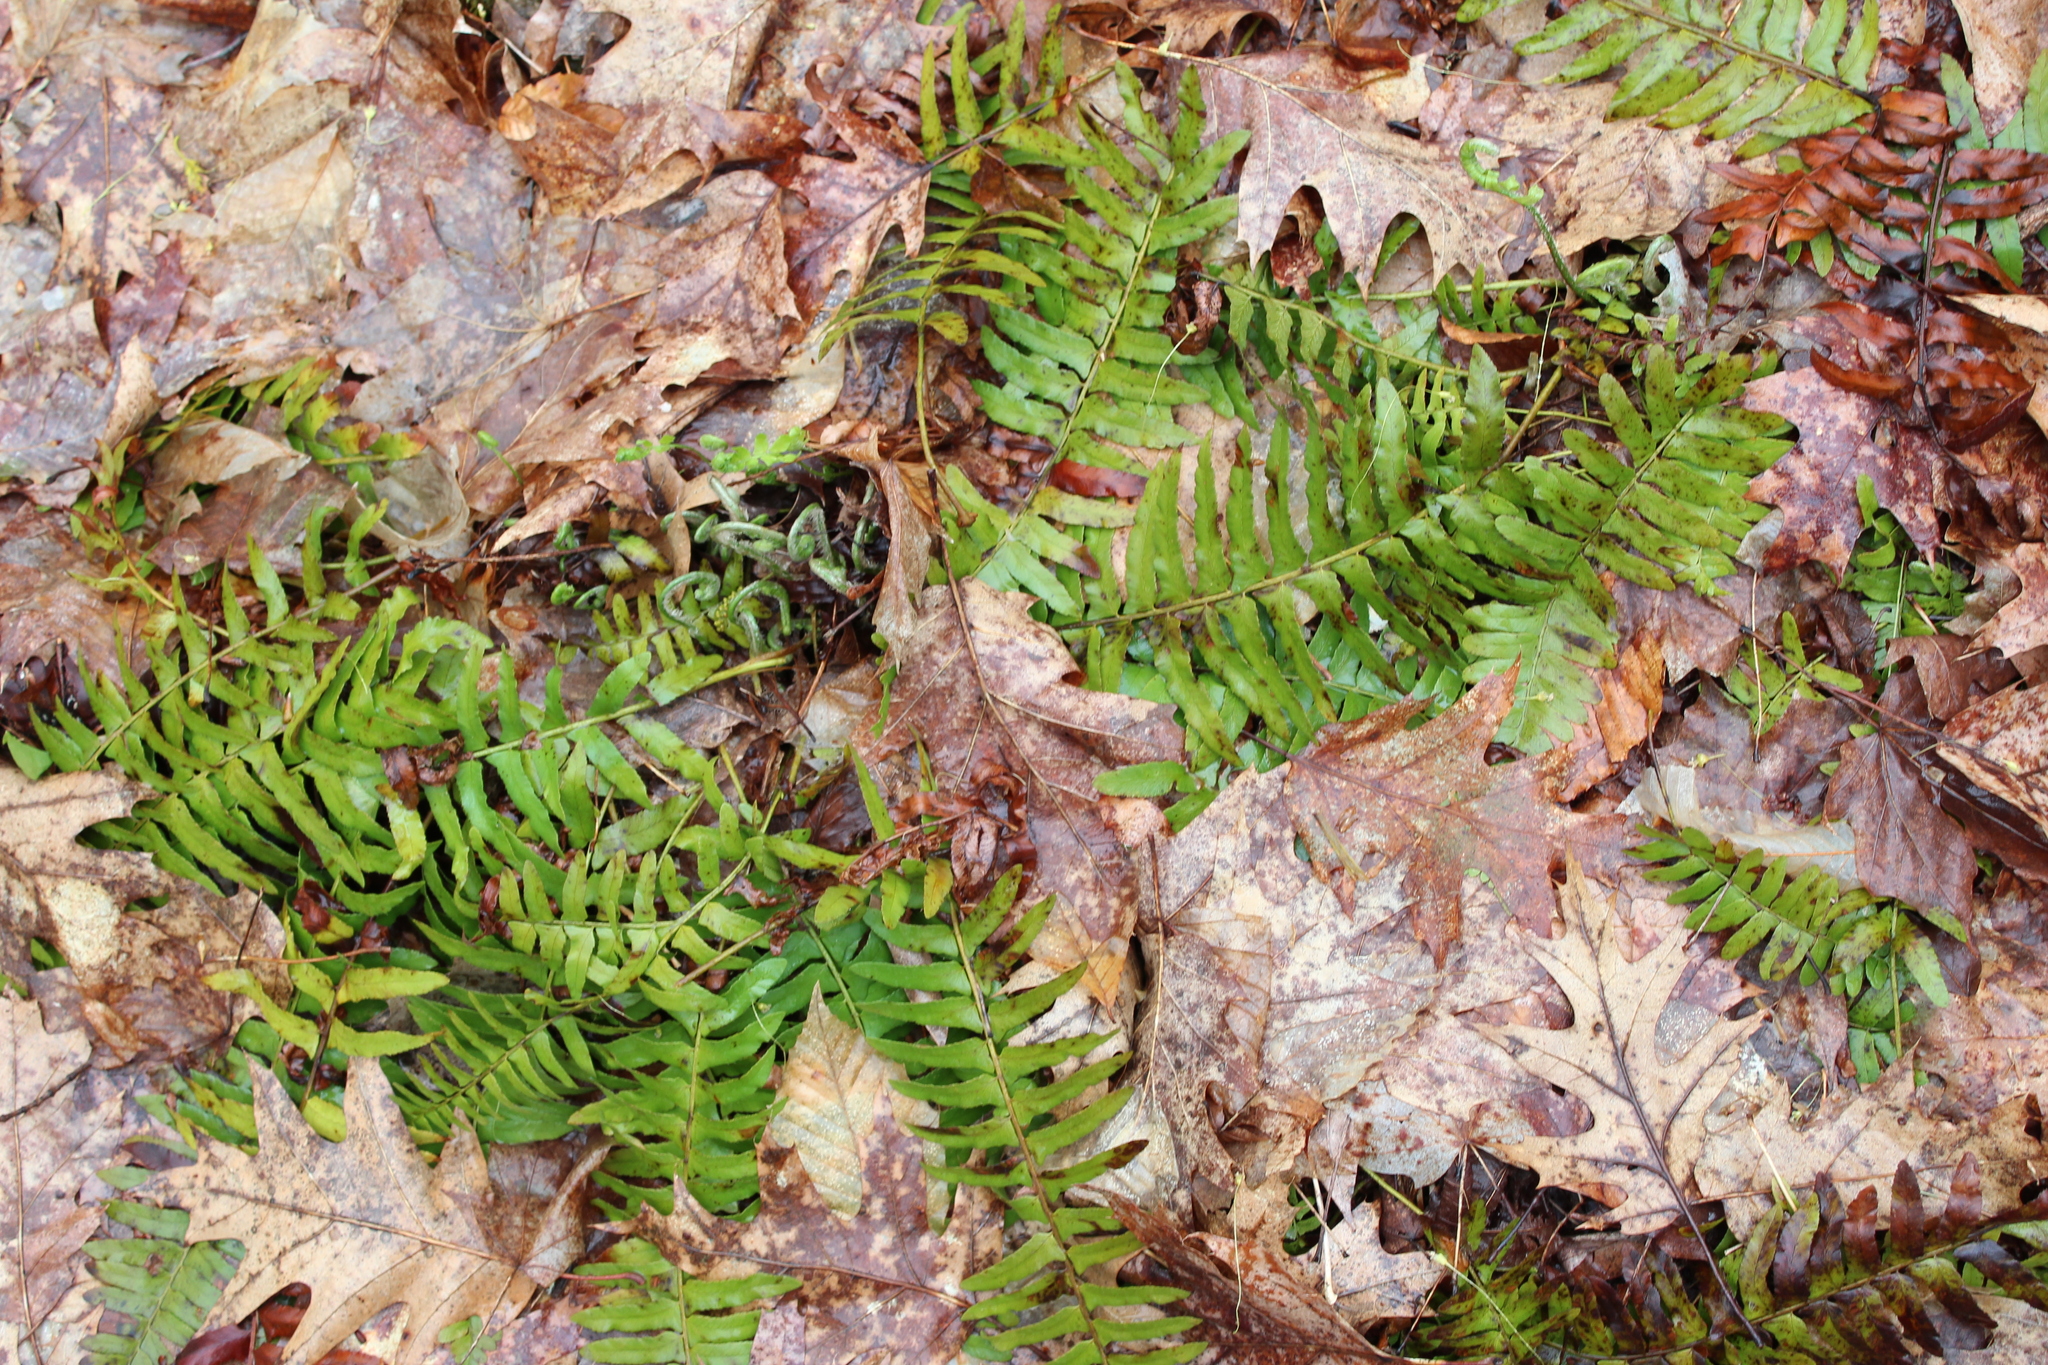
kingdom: Plantae
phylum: Tracheophyta
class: Polypodiopsida
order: Polypodiales
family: Dryopteridaceae
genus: Polystichum
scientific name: Polystichum acrostichoides
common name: Christmas fern
